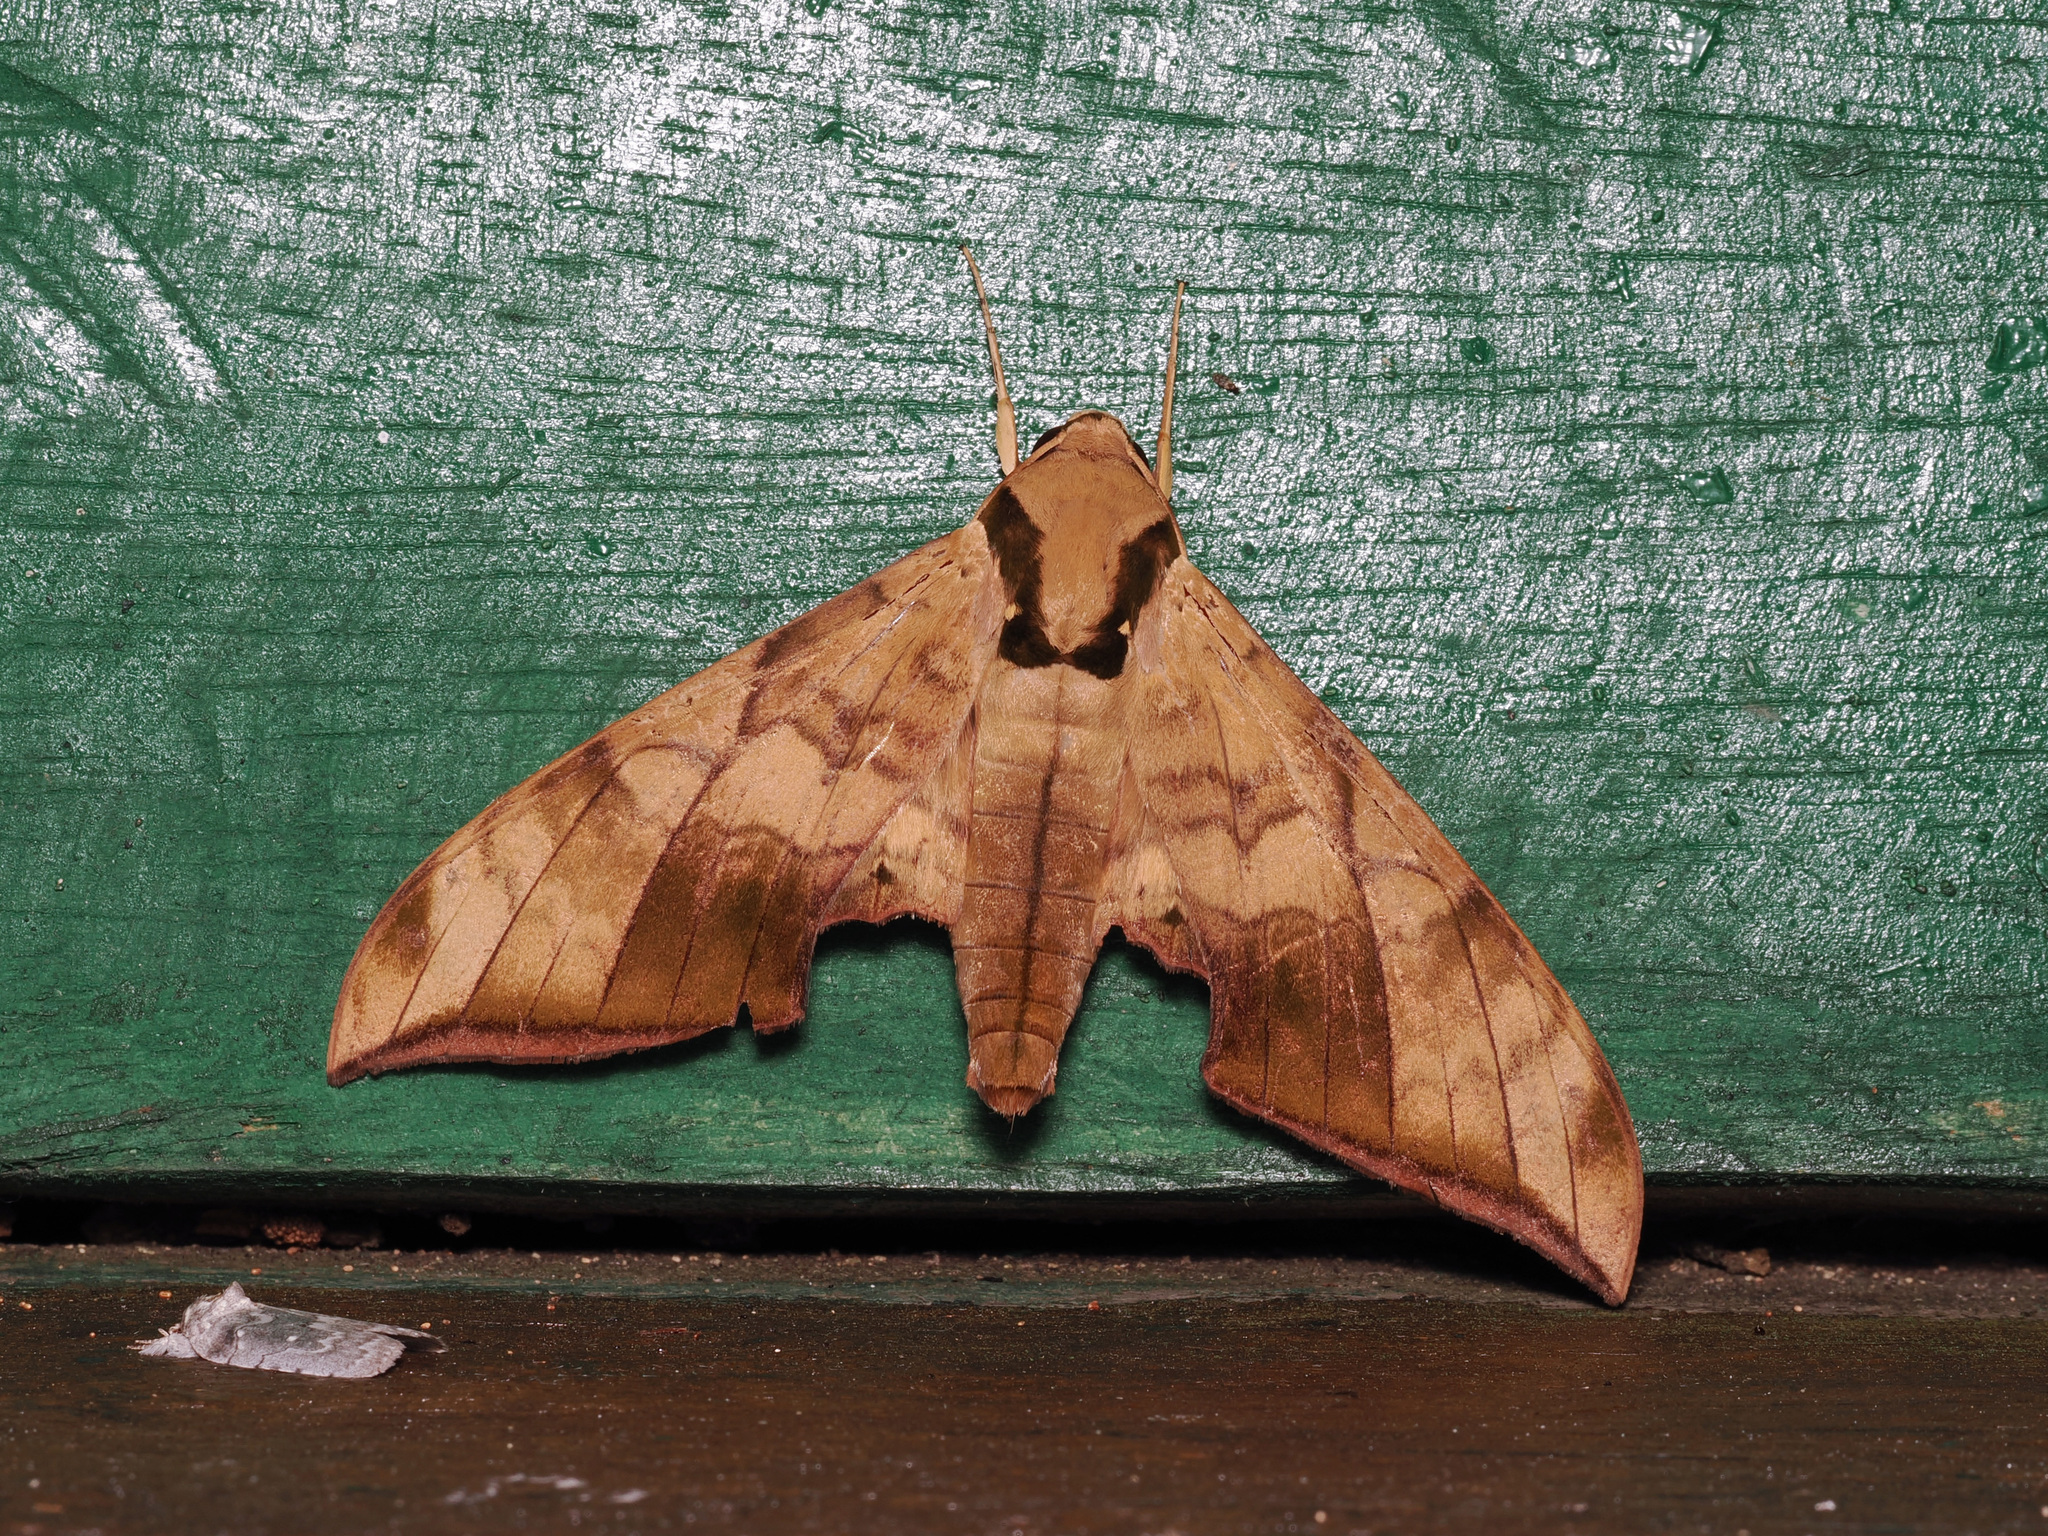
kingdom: Animalia
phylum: Arthropoda
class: Insecta
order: Lepidoptera
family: Sphingidae
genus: Ambulyx
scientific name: Ambulyx tattina
